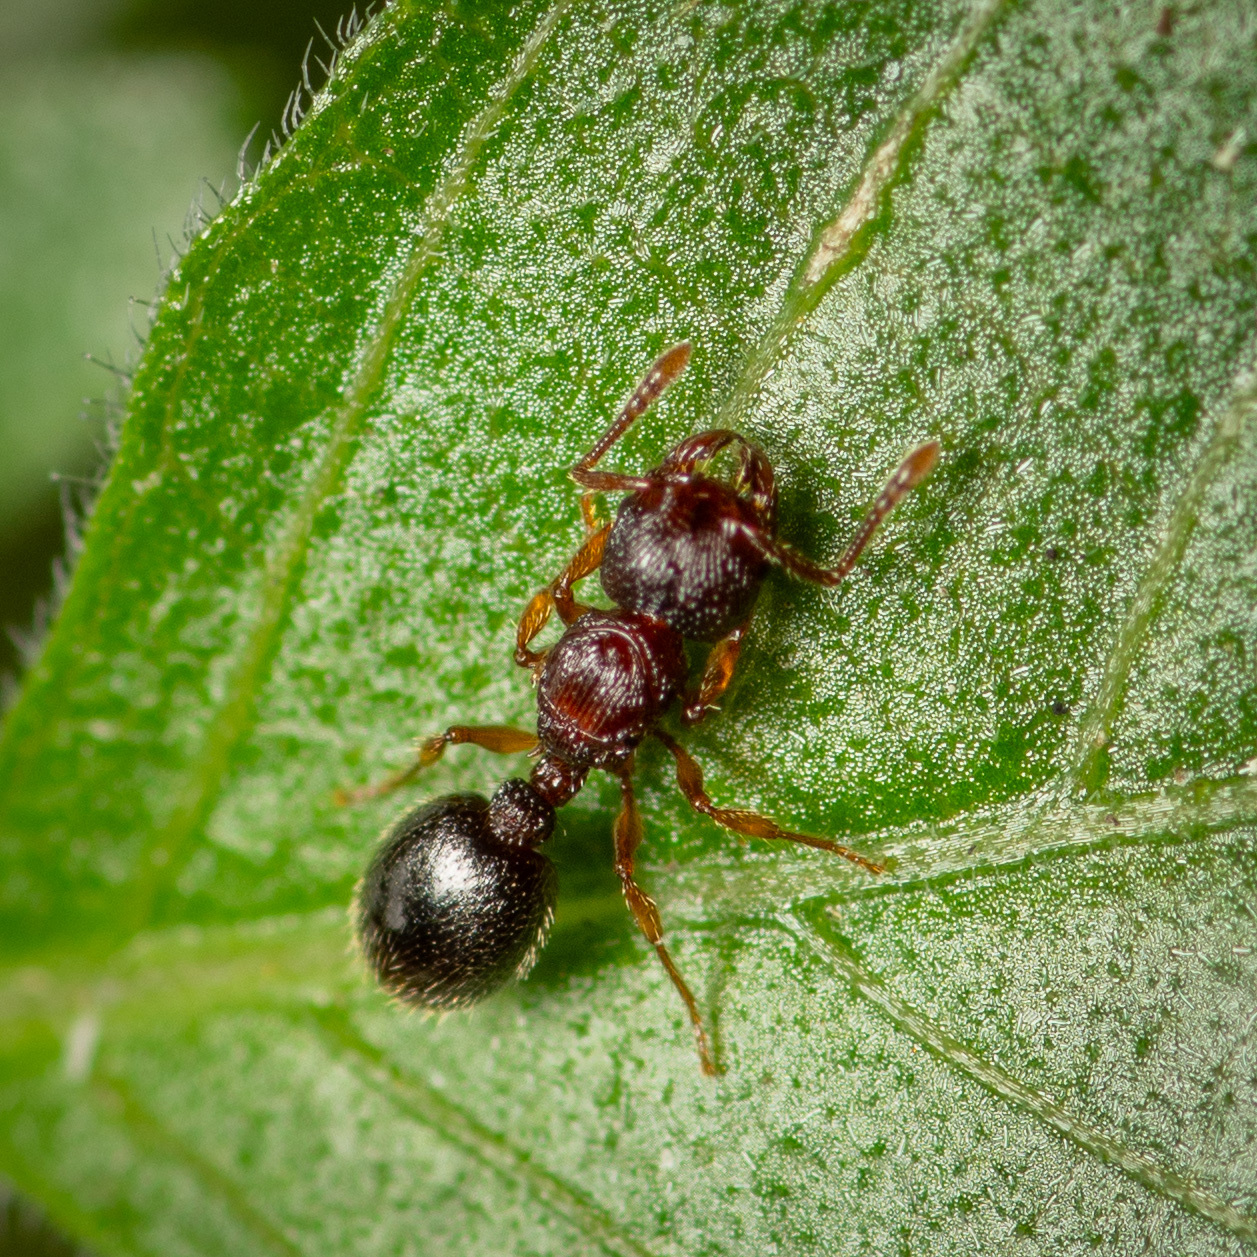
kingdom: Animalia
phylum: Arthropoda
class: Insecta
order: Hymenoptera
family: Formicidae
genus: Myrmecina
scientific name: Myrmecina americana
